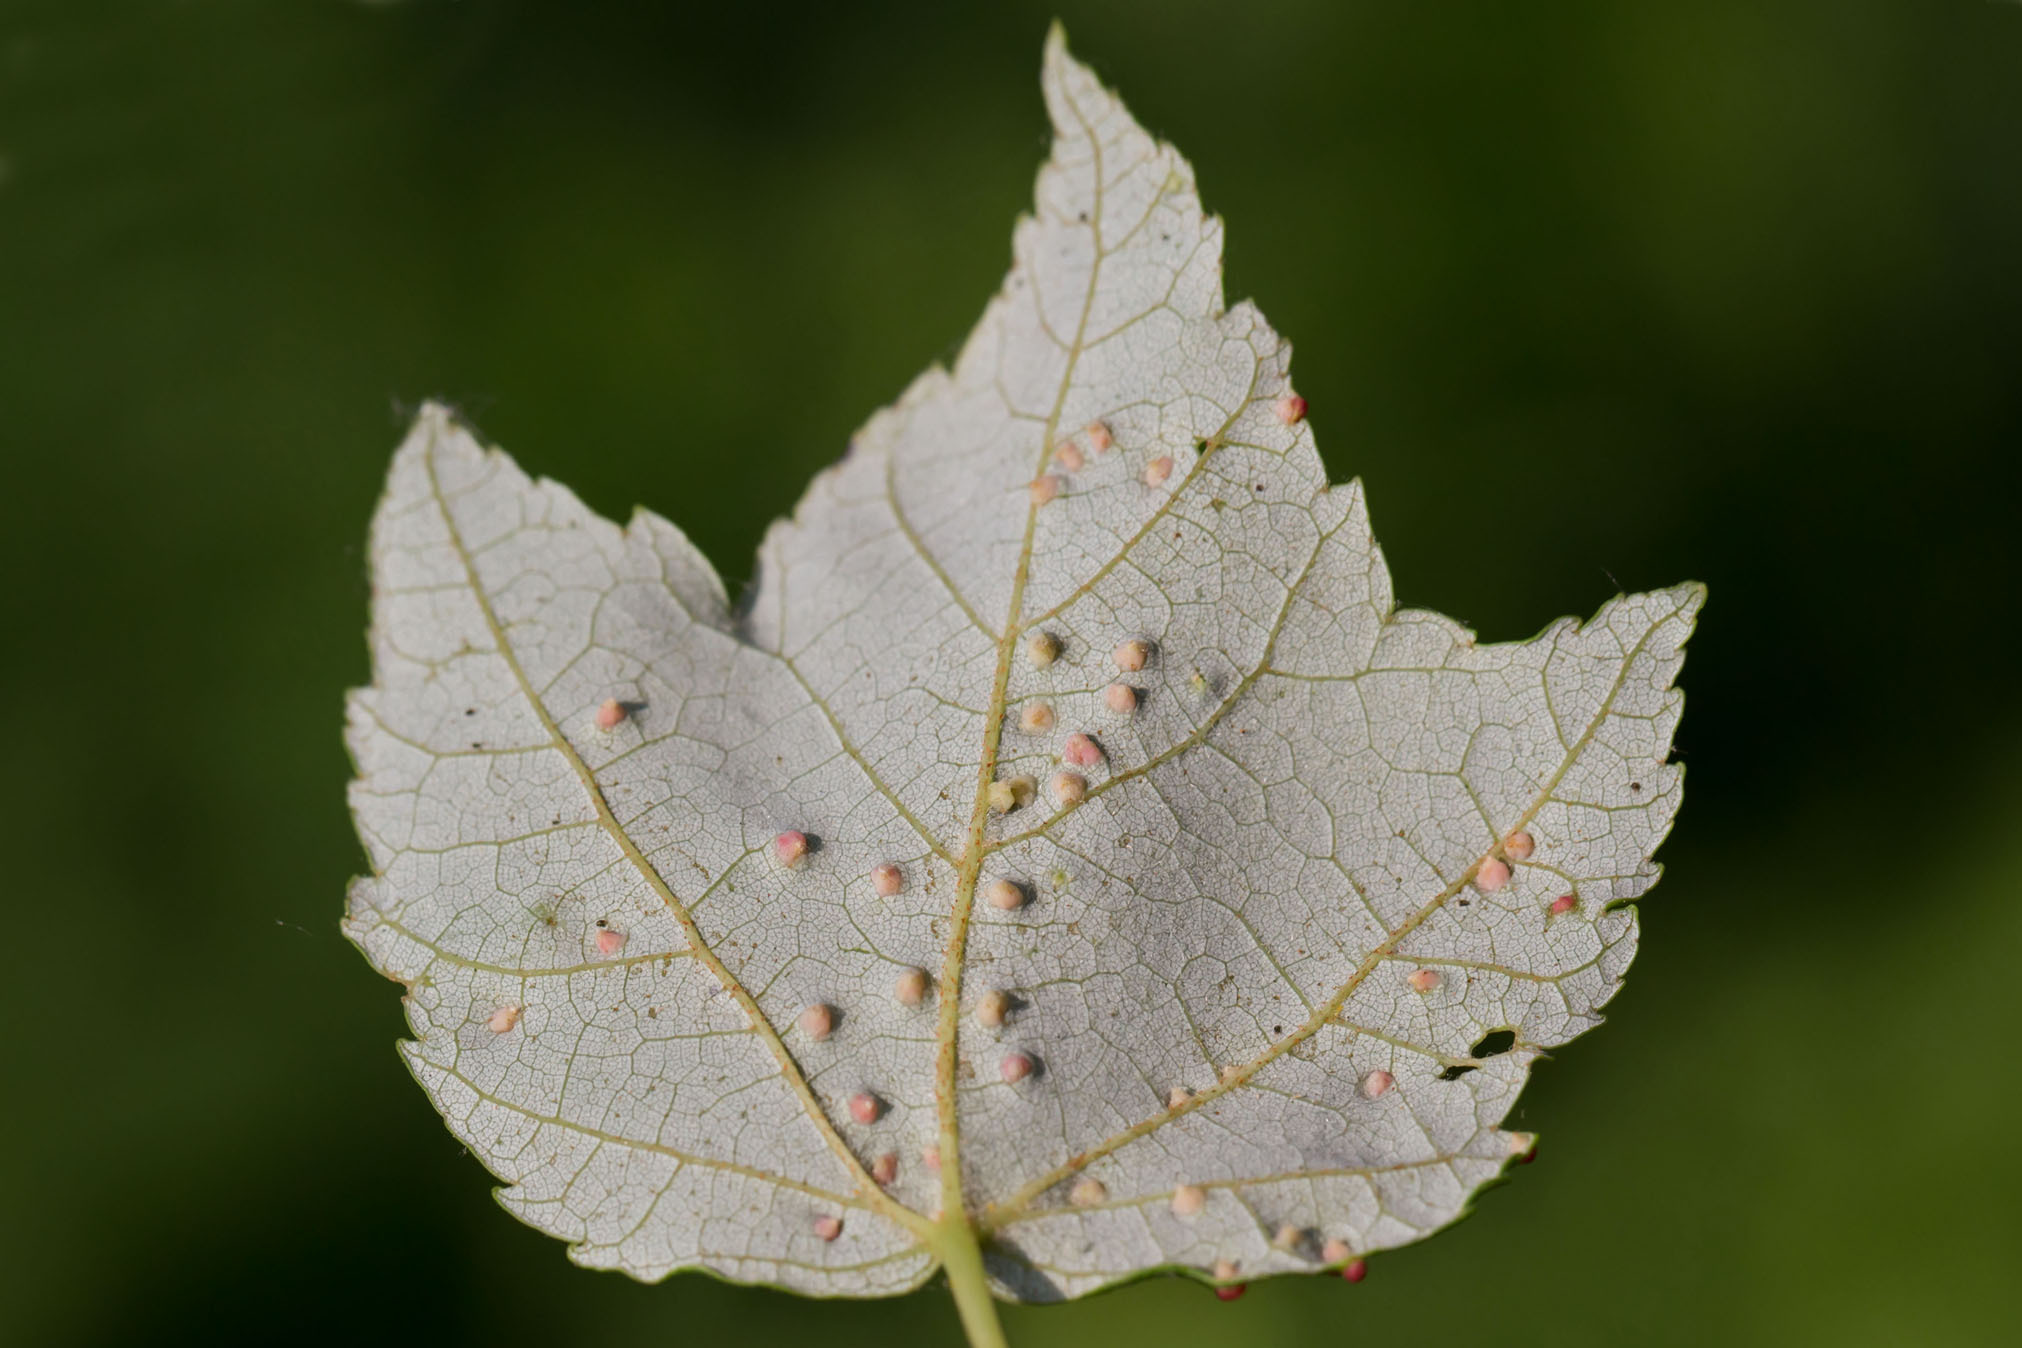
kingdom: Animalia
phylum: Arthropoda
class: Arachnida
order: Trombidiformes
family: Eriophyidae
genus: Vasates
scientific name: Vasates quadripedes
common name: Maple bladder gall mite
